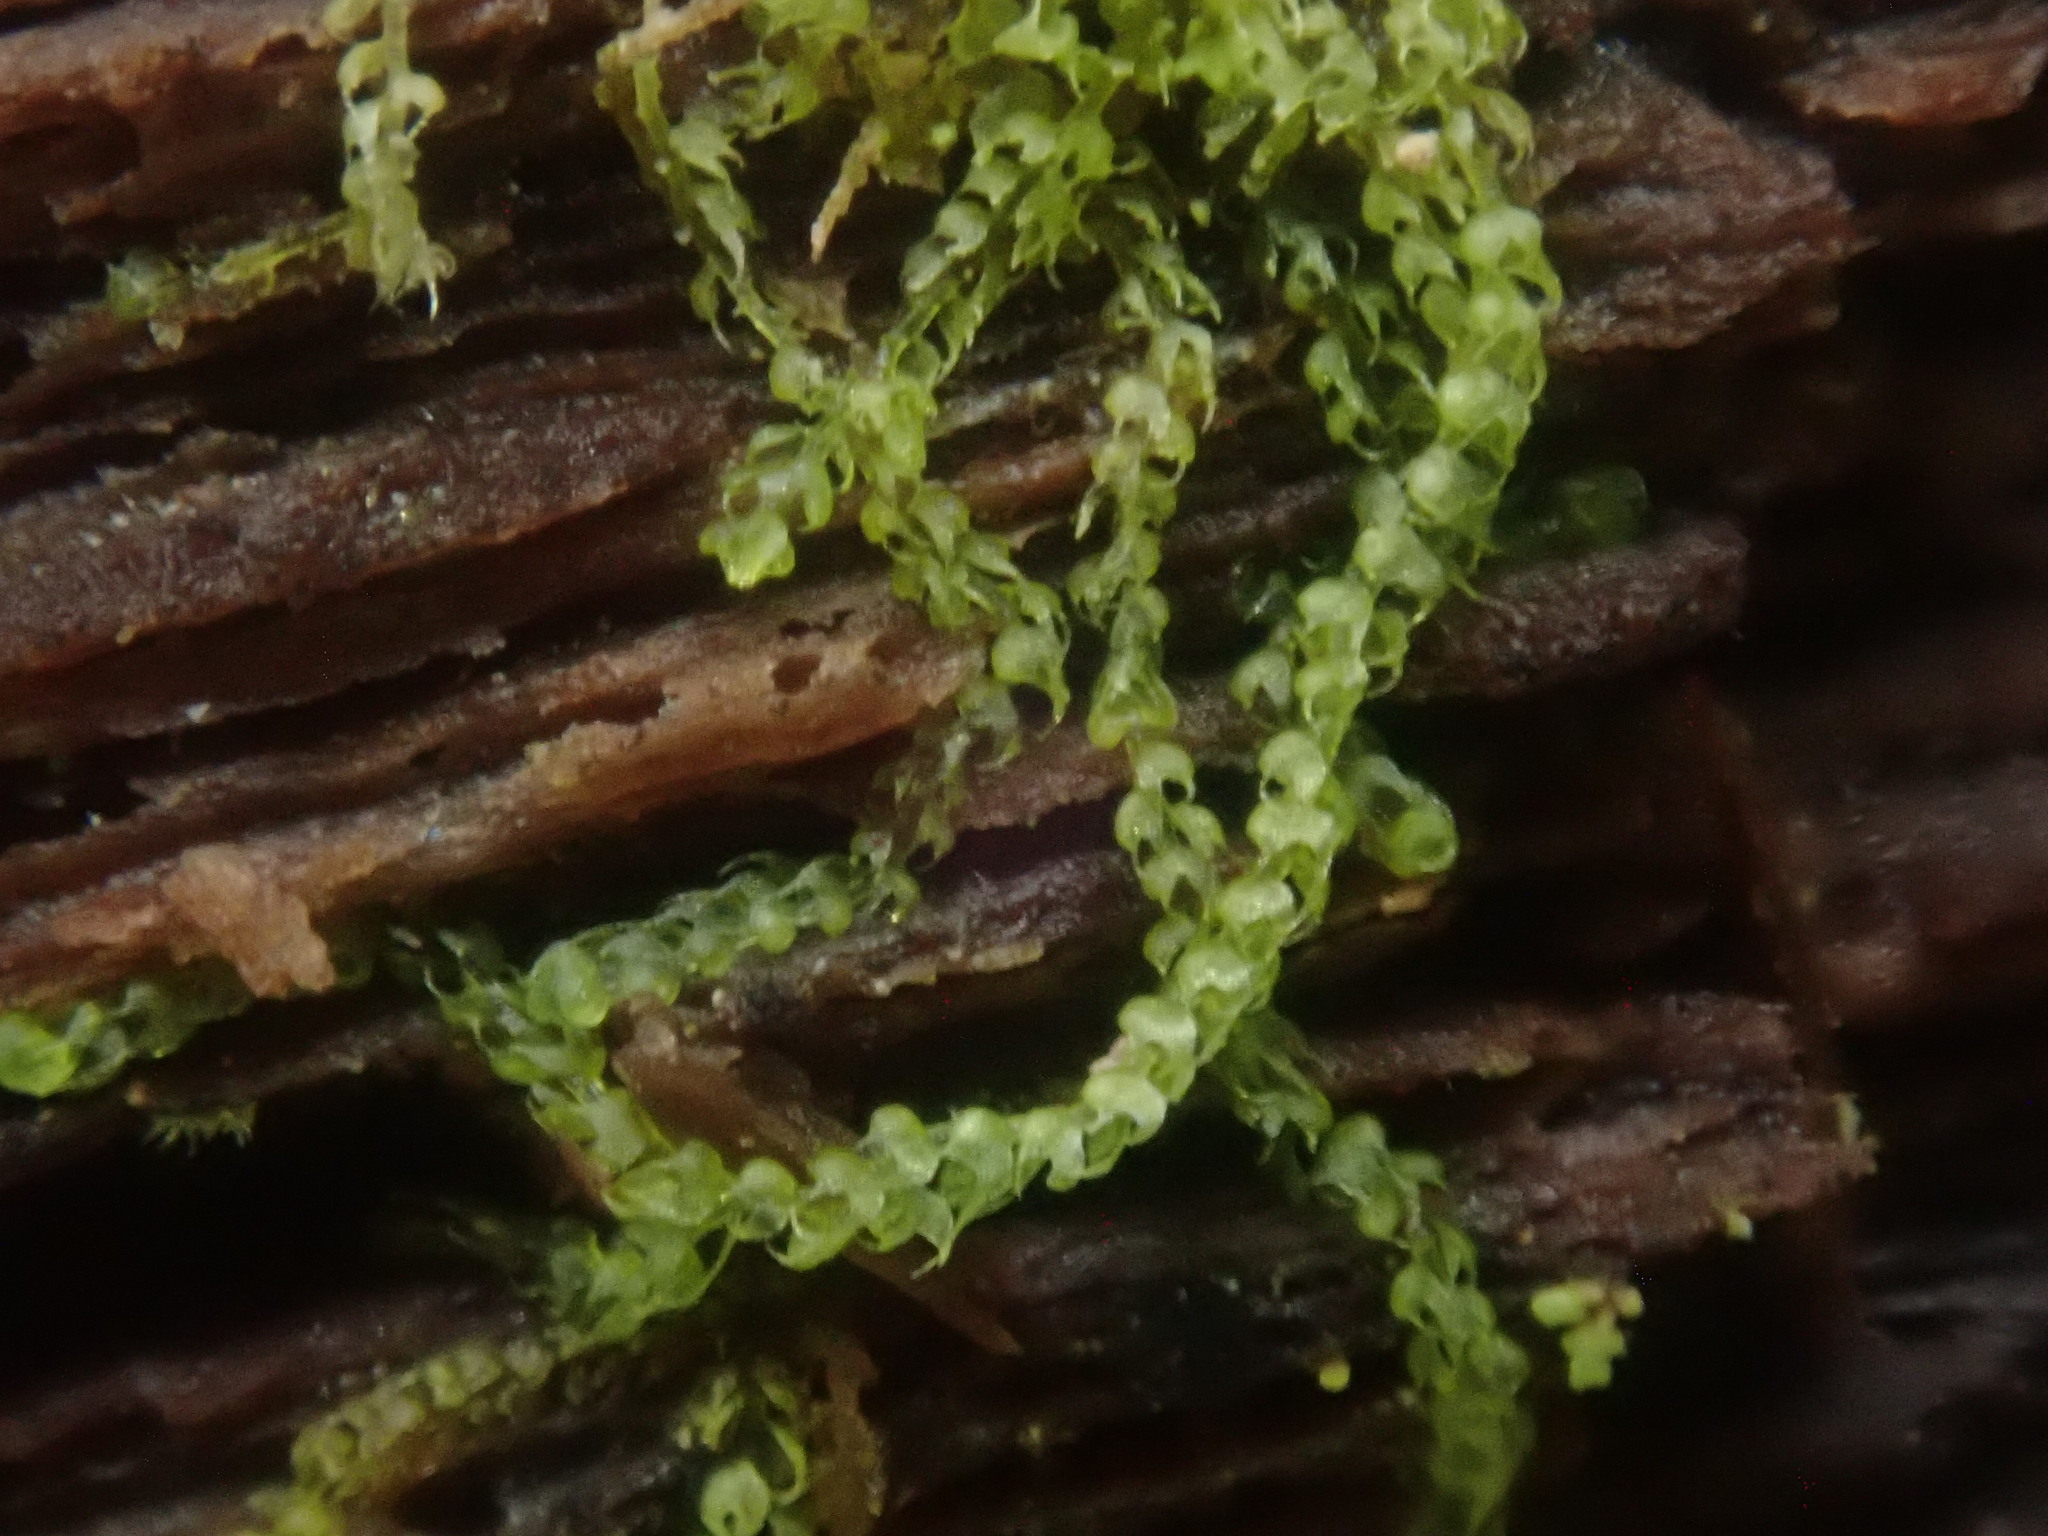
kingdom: Plantae
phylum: Marchantiophyta
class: Jungermanniopsida
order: Jungermanniales
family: Cephaloziaceae
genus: Nowellia
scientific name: Nowellia curvifolia
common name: Wood rustwort
